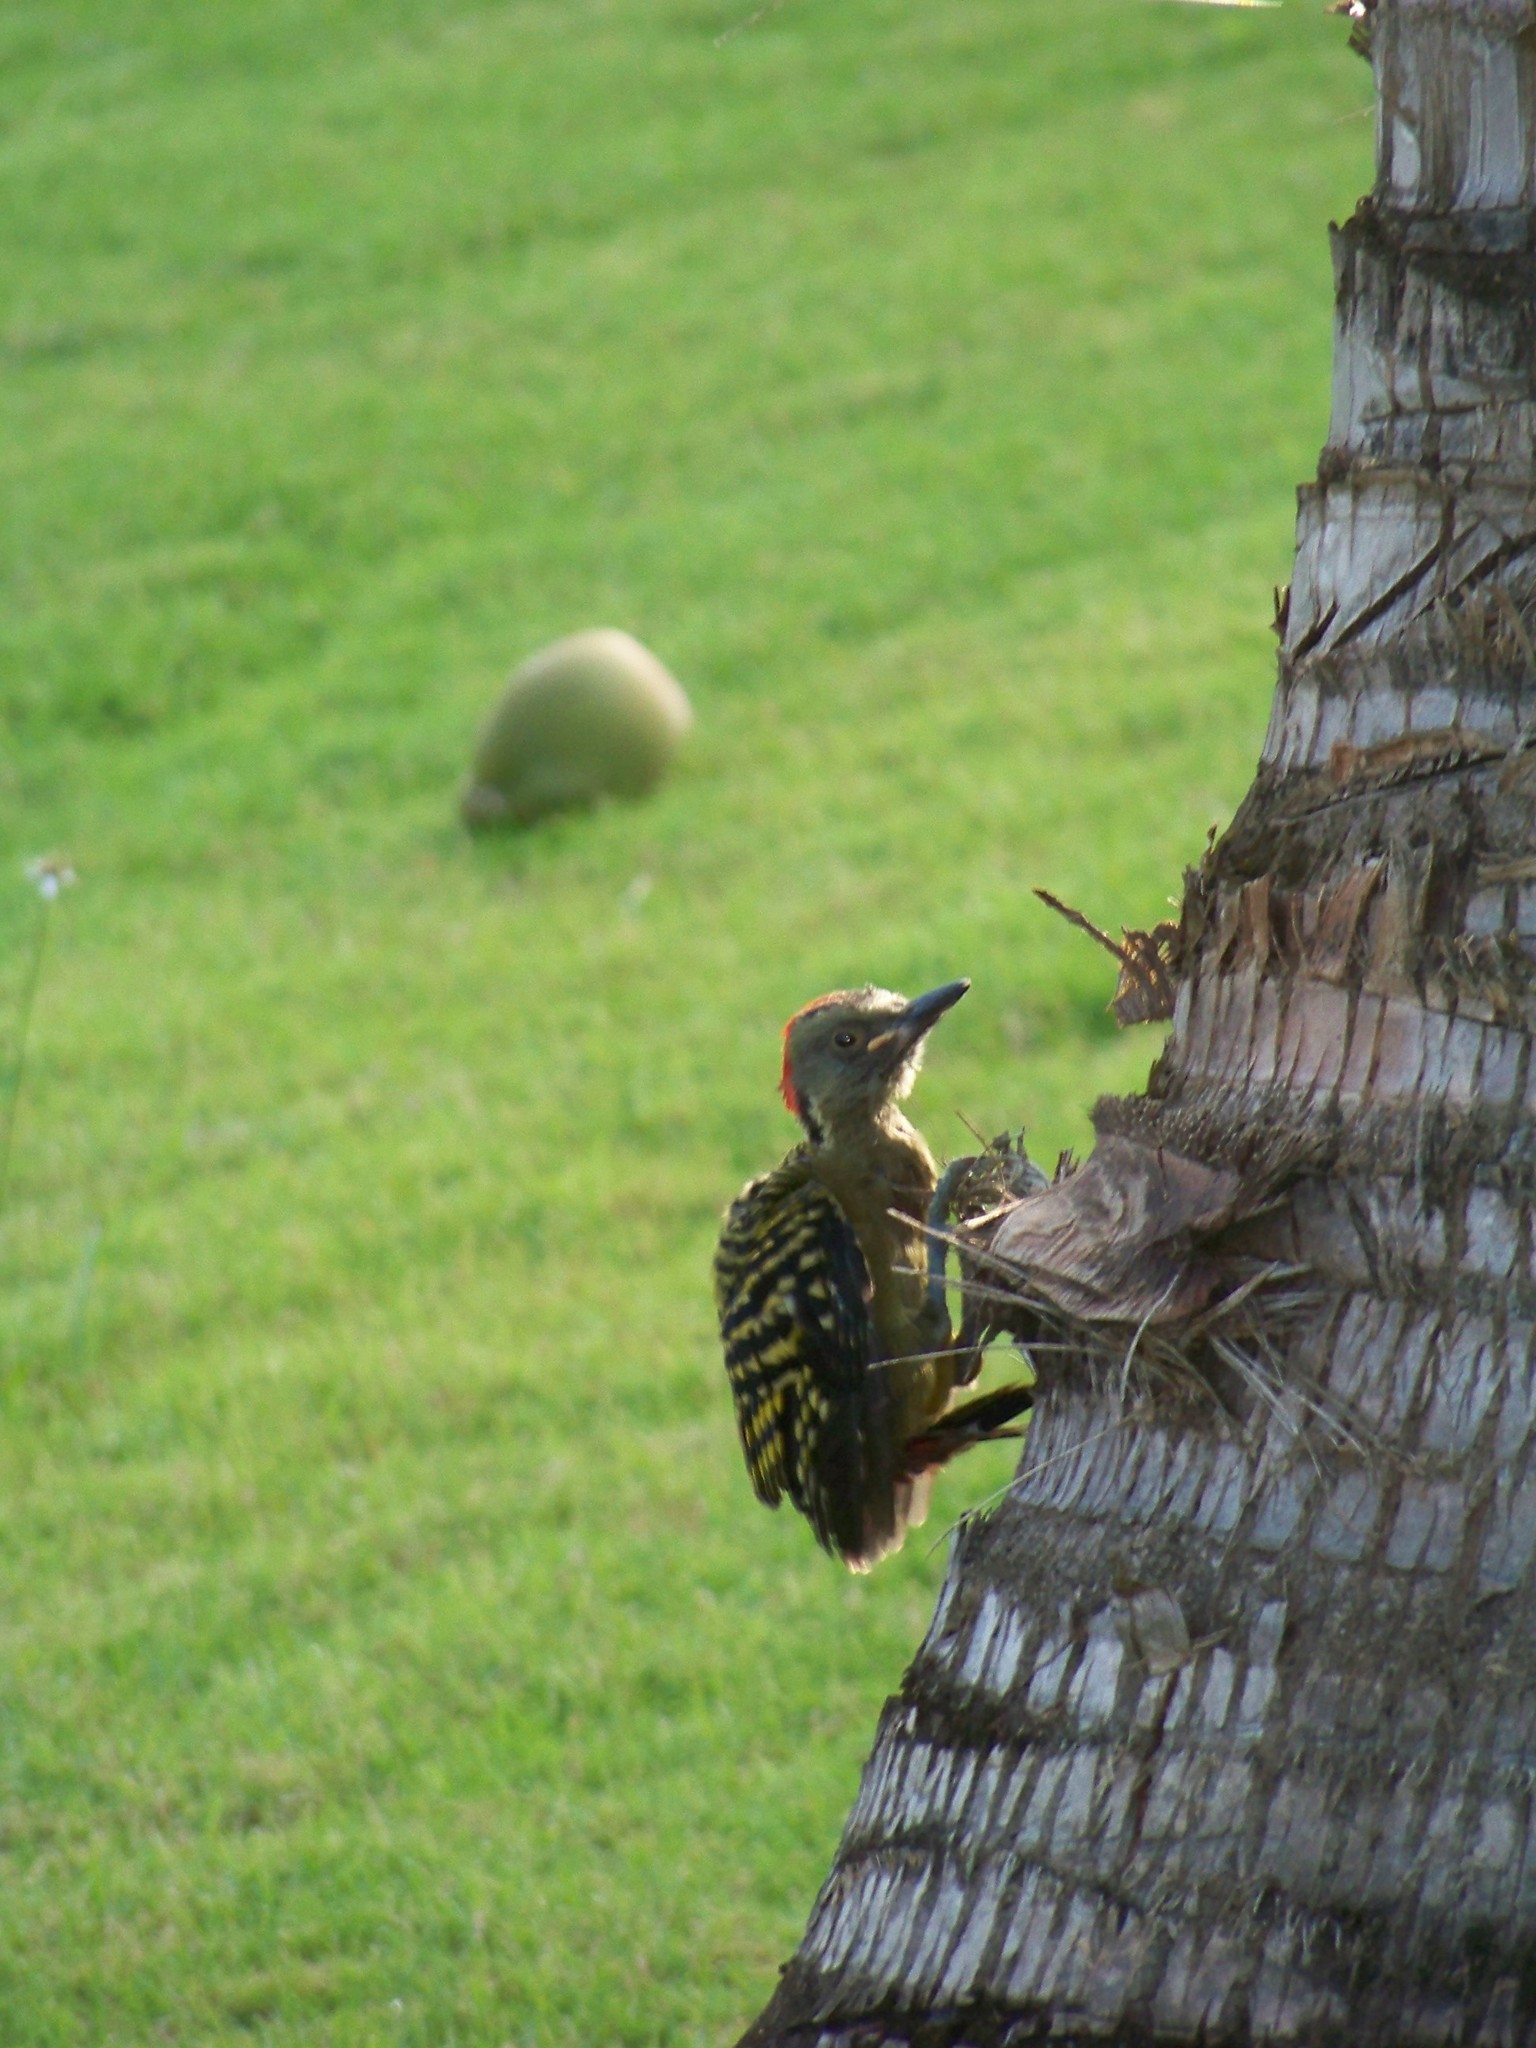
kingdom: Animalia
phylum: Chordata
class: Aves
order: Piciformes
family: Picidae
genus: Melanerpes
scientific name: Melanerpes striatus
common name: Hispaniolan woodpecker
